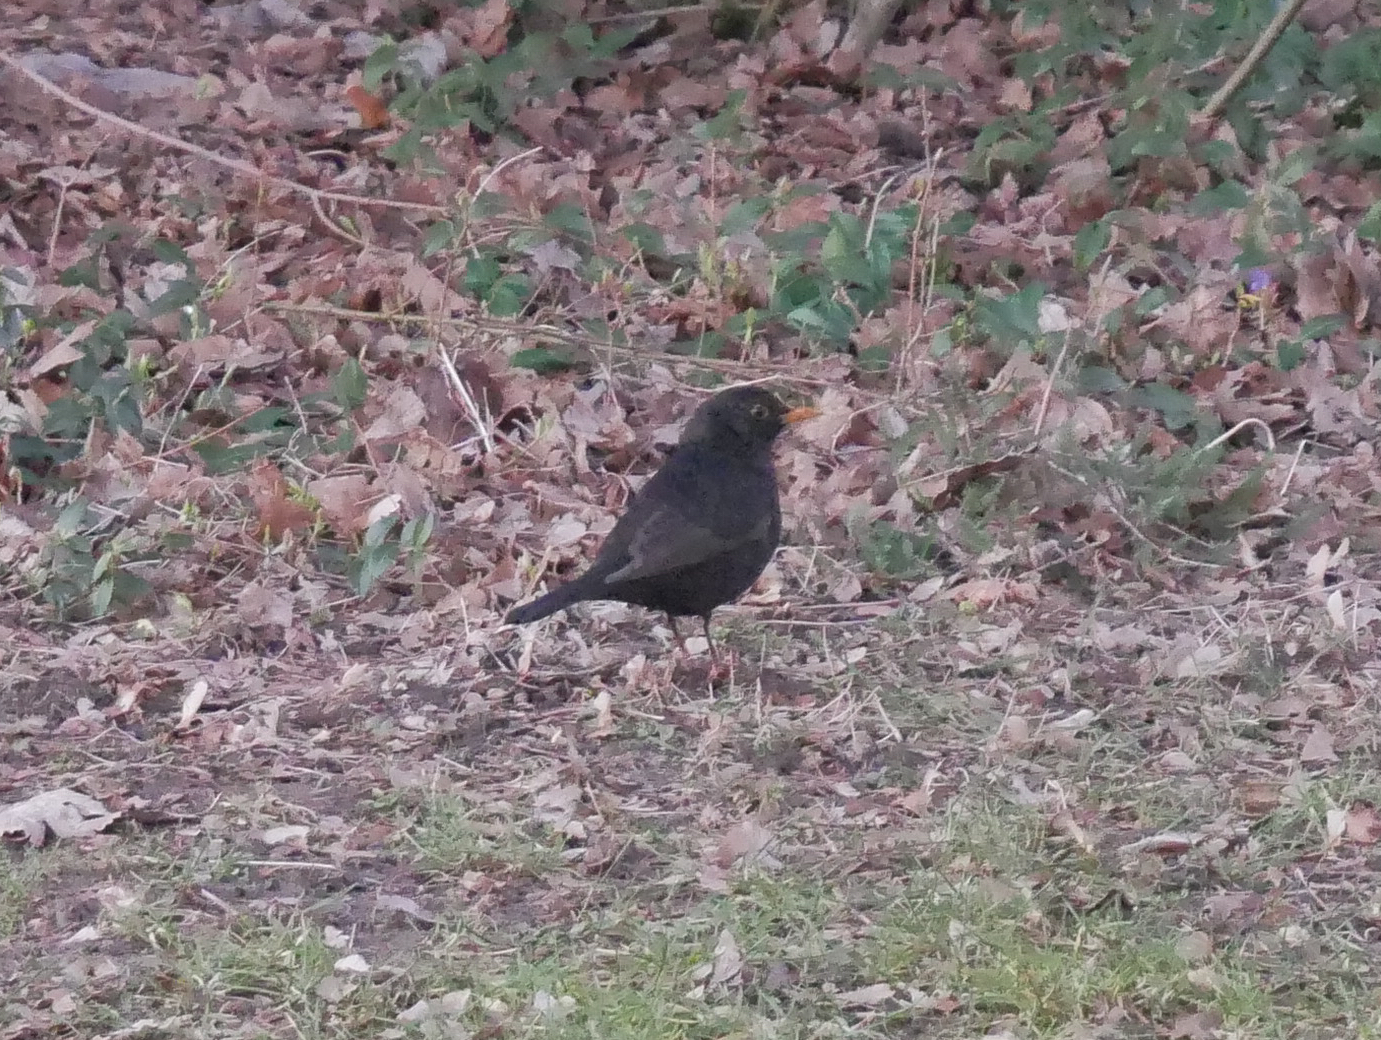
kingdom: Animalia
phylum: Chordata
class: Aves
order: Passeriformes
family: Turdidae
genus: Turdus
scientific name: Turdus merula
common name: Common blackbird
